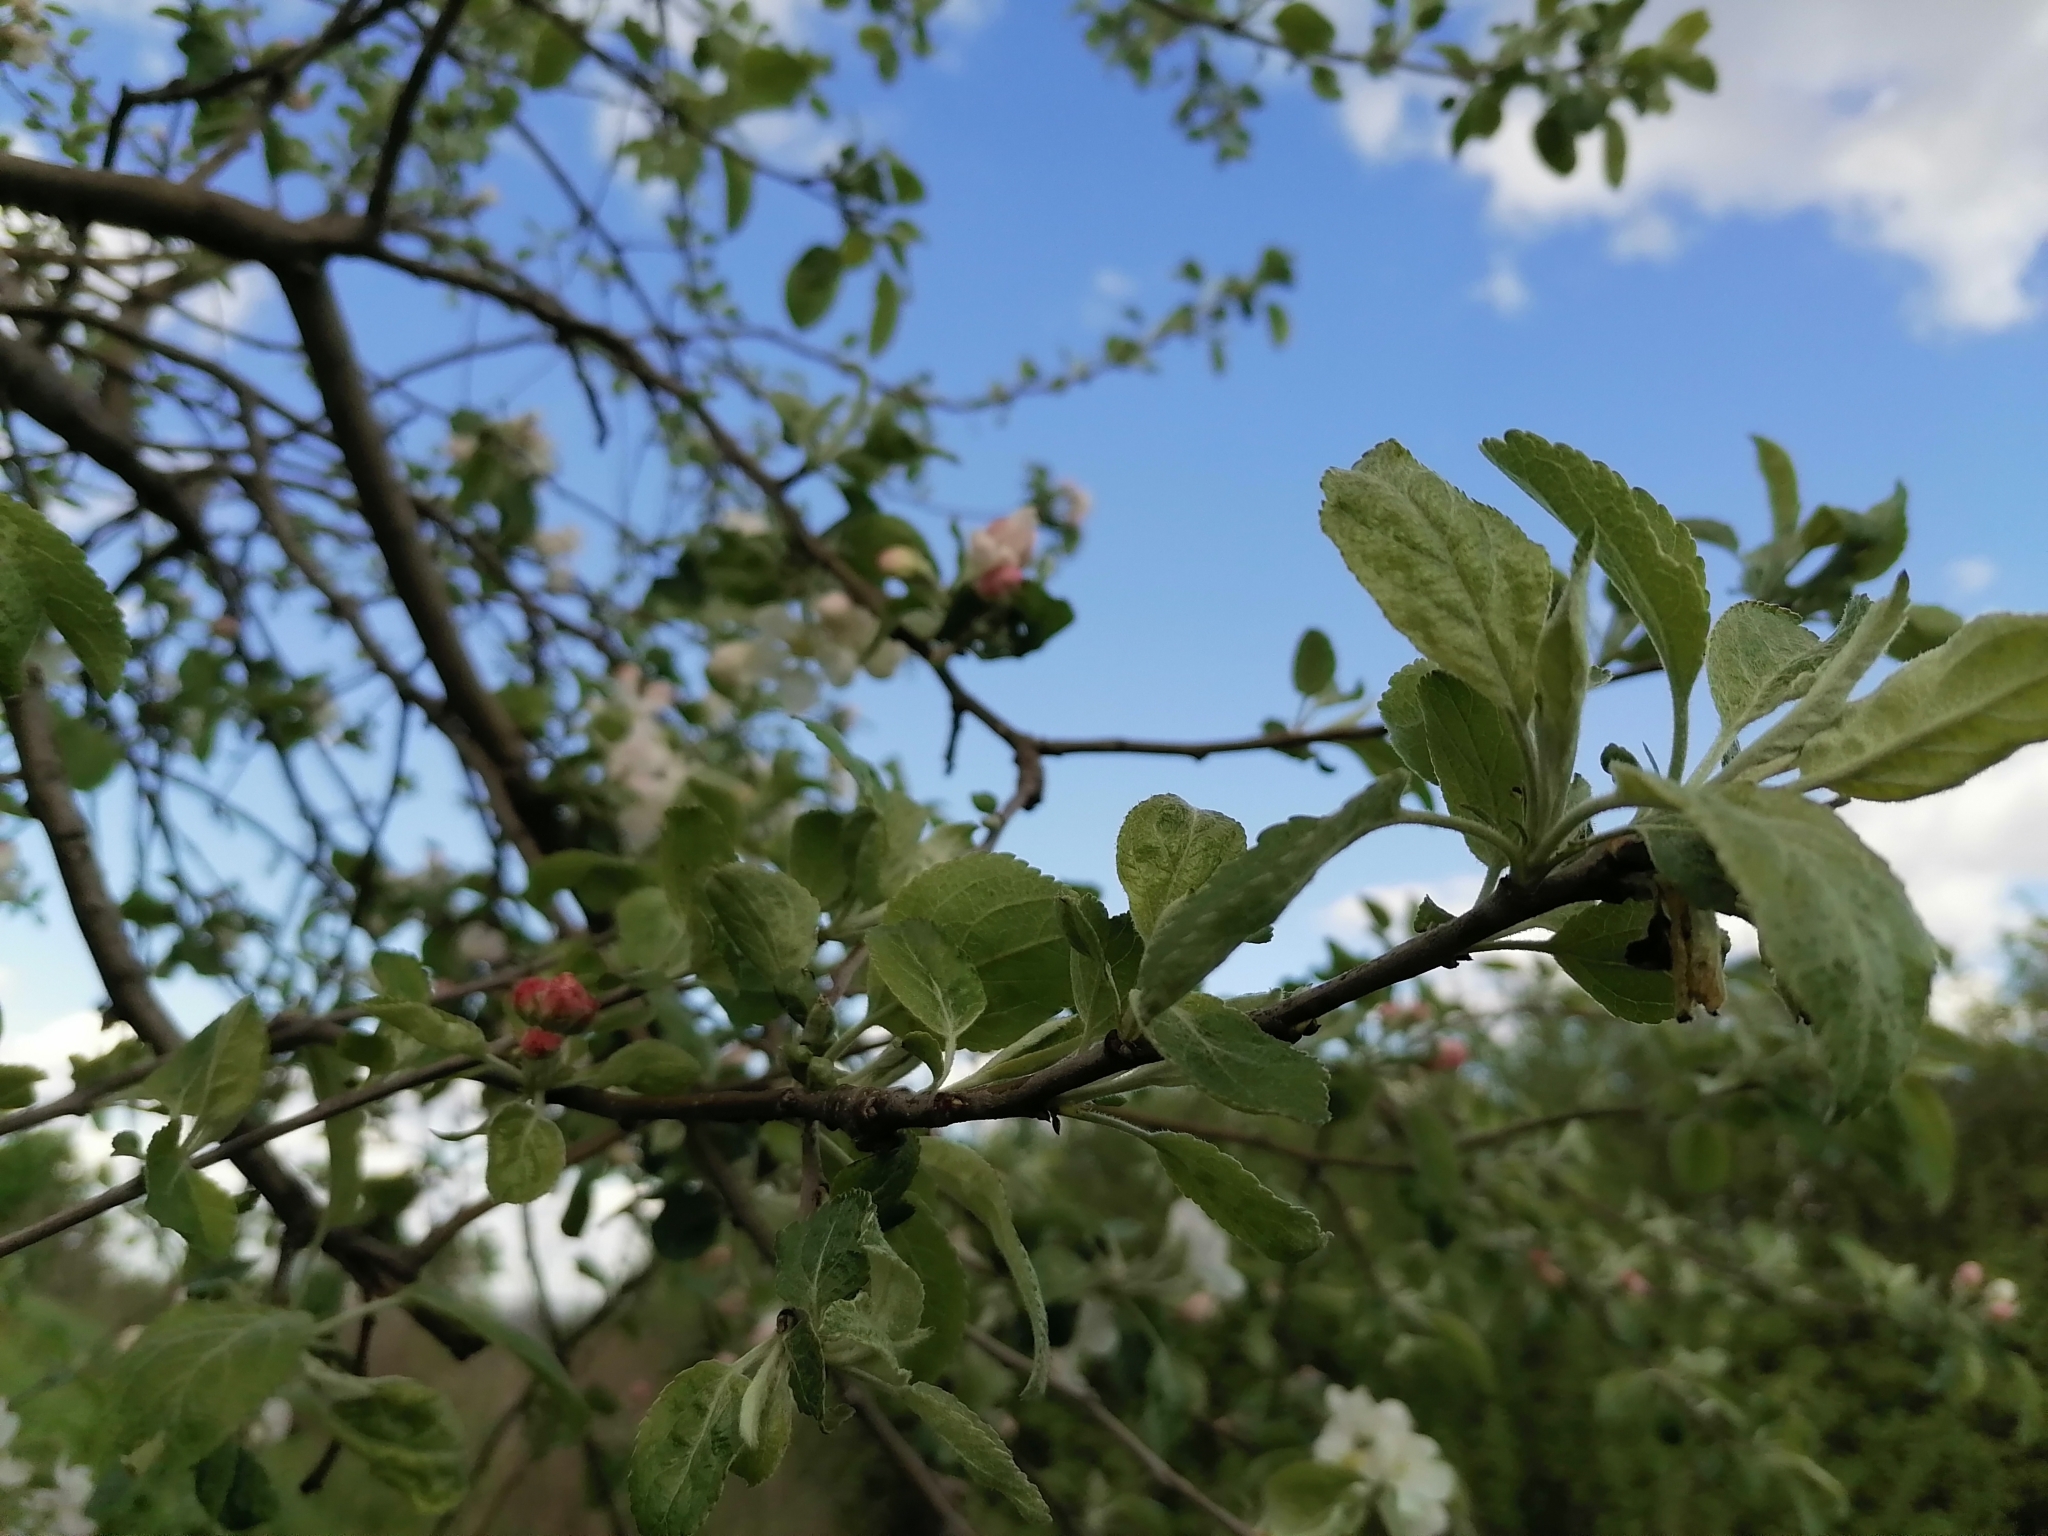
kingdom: Plantae
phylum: Tracheophyta
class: Magnoliopsida
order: Rosales
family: Rosaceae
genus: Malus
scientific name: Malus domestica
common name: Apple
